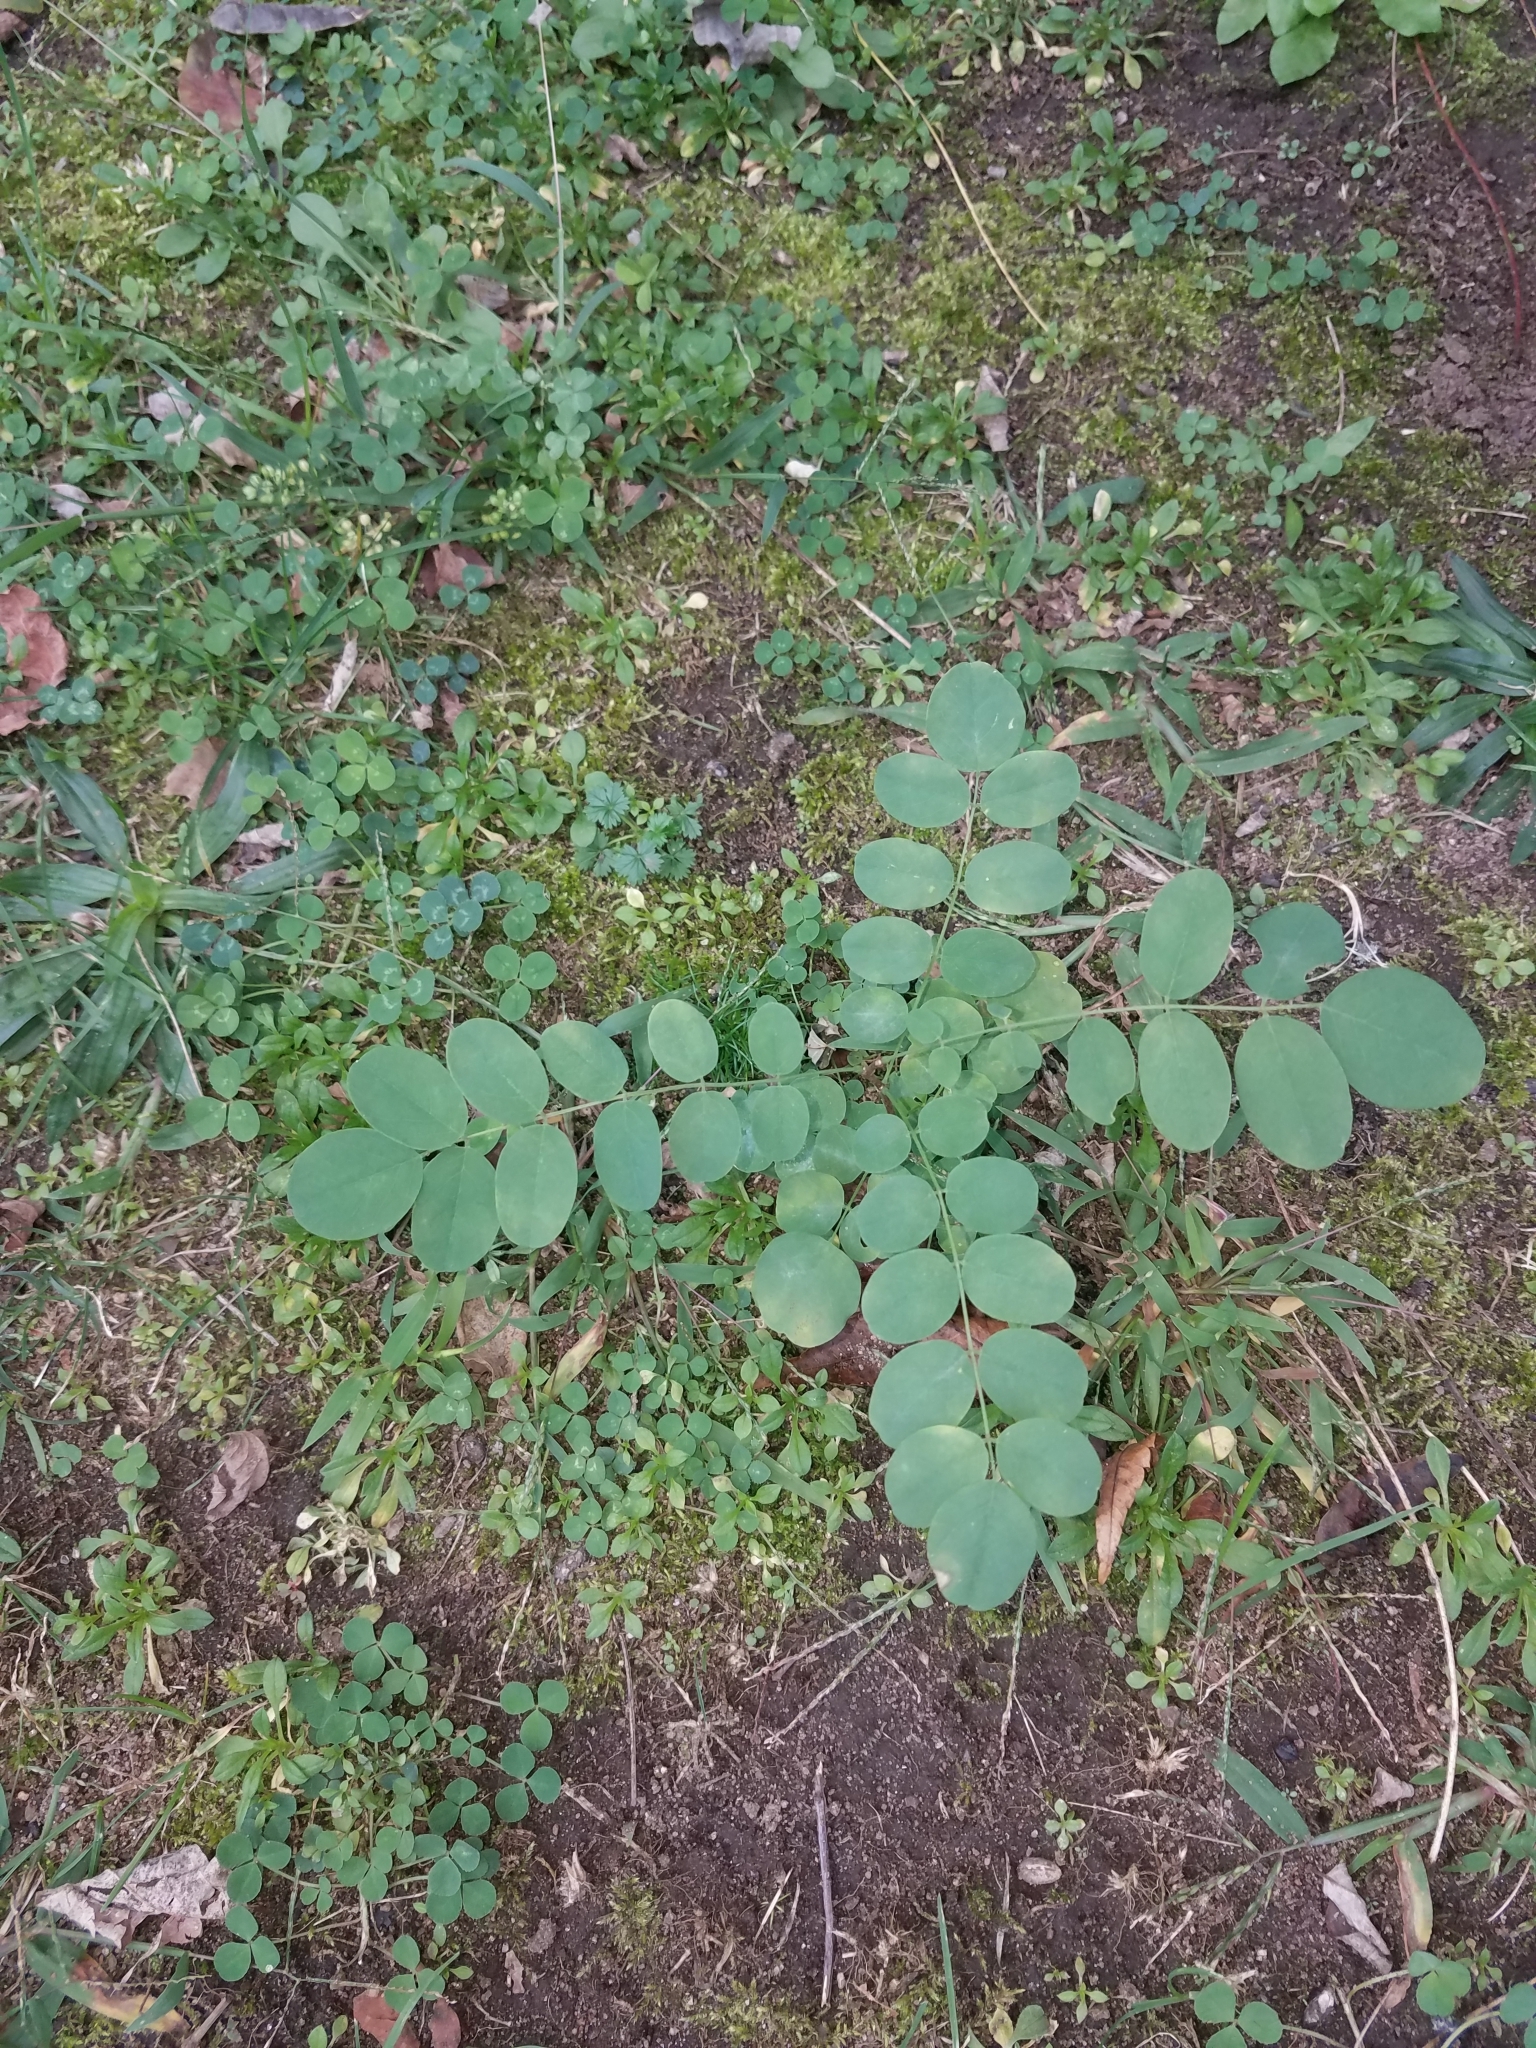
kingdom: Plantae
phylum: Tracheophyta
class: Magnoliopsida
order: Fabales
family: Fabaceae
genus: Robinia
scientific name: Robinia pseudoacacia
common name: Black locust
